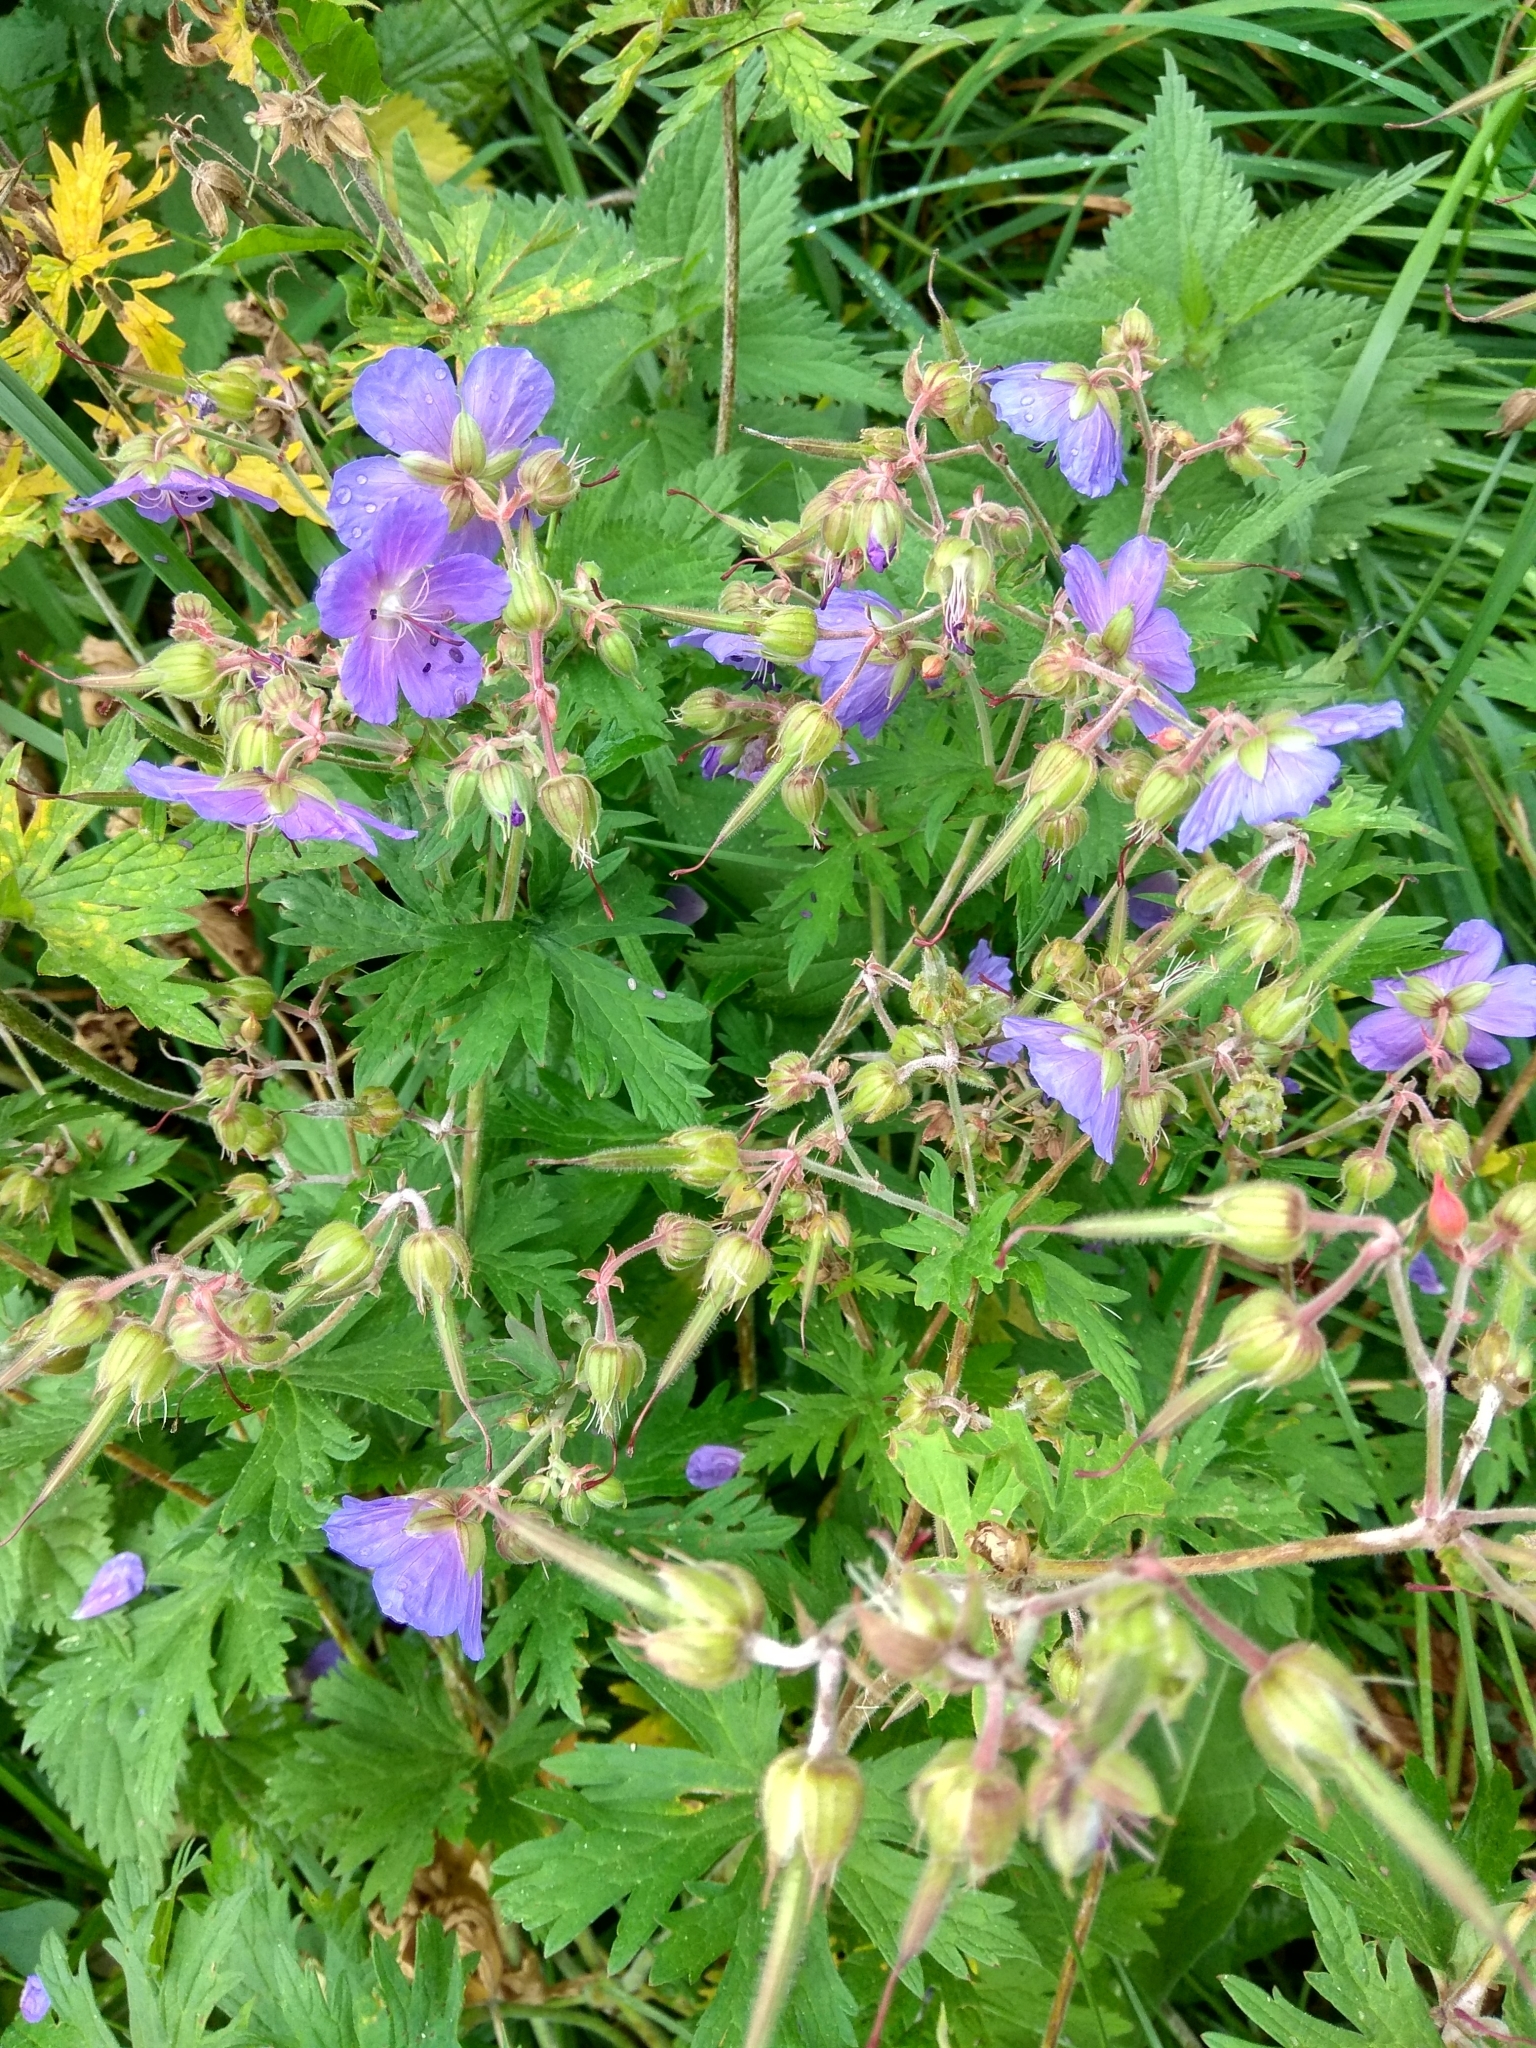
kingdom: Plantae
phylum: Tracheophyta
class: Magnoliopsida
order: Geraniales
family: Geraniaceae
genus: Geranium
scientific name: Geranium pratense
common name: Meadow crane's-bill
